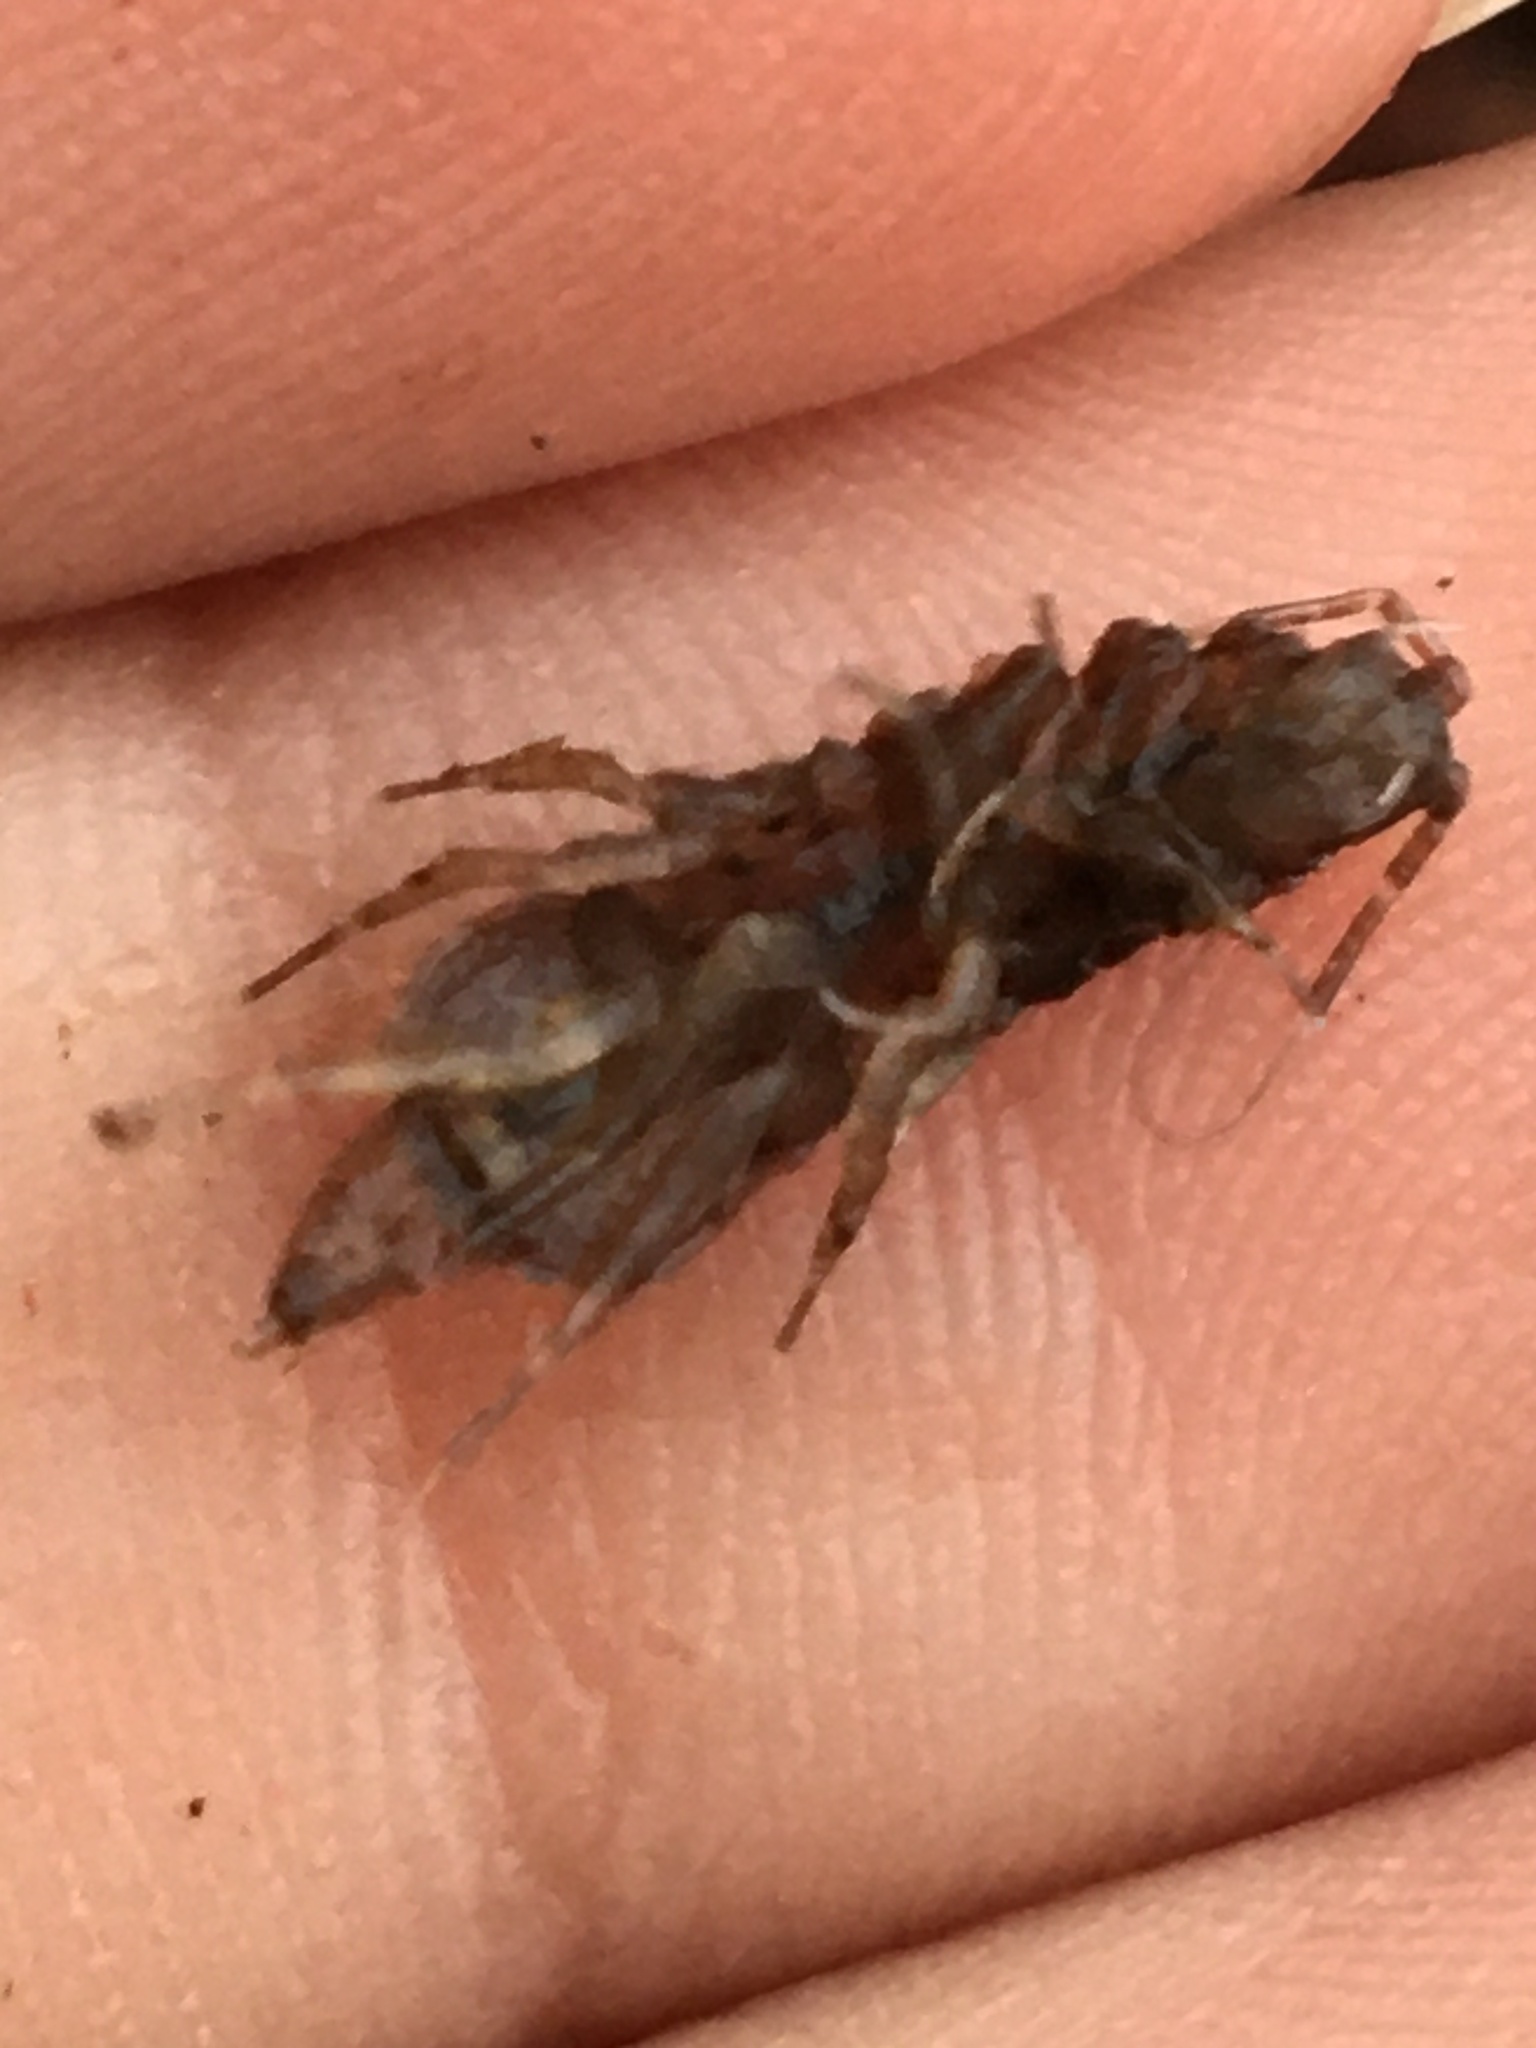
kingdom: Animalia
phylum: Arthropoda
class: Malacostraca
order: Isopoda
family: Asellidae
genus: Caecidotea
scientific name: Caecidotea
